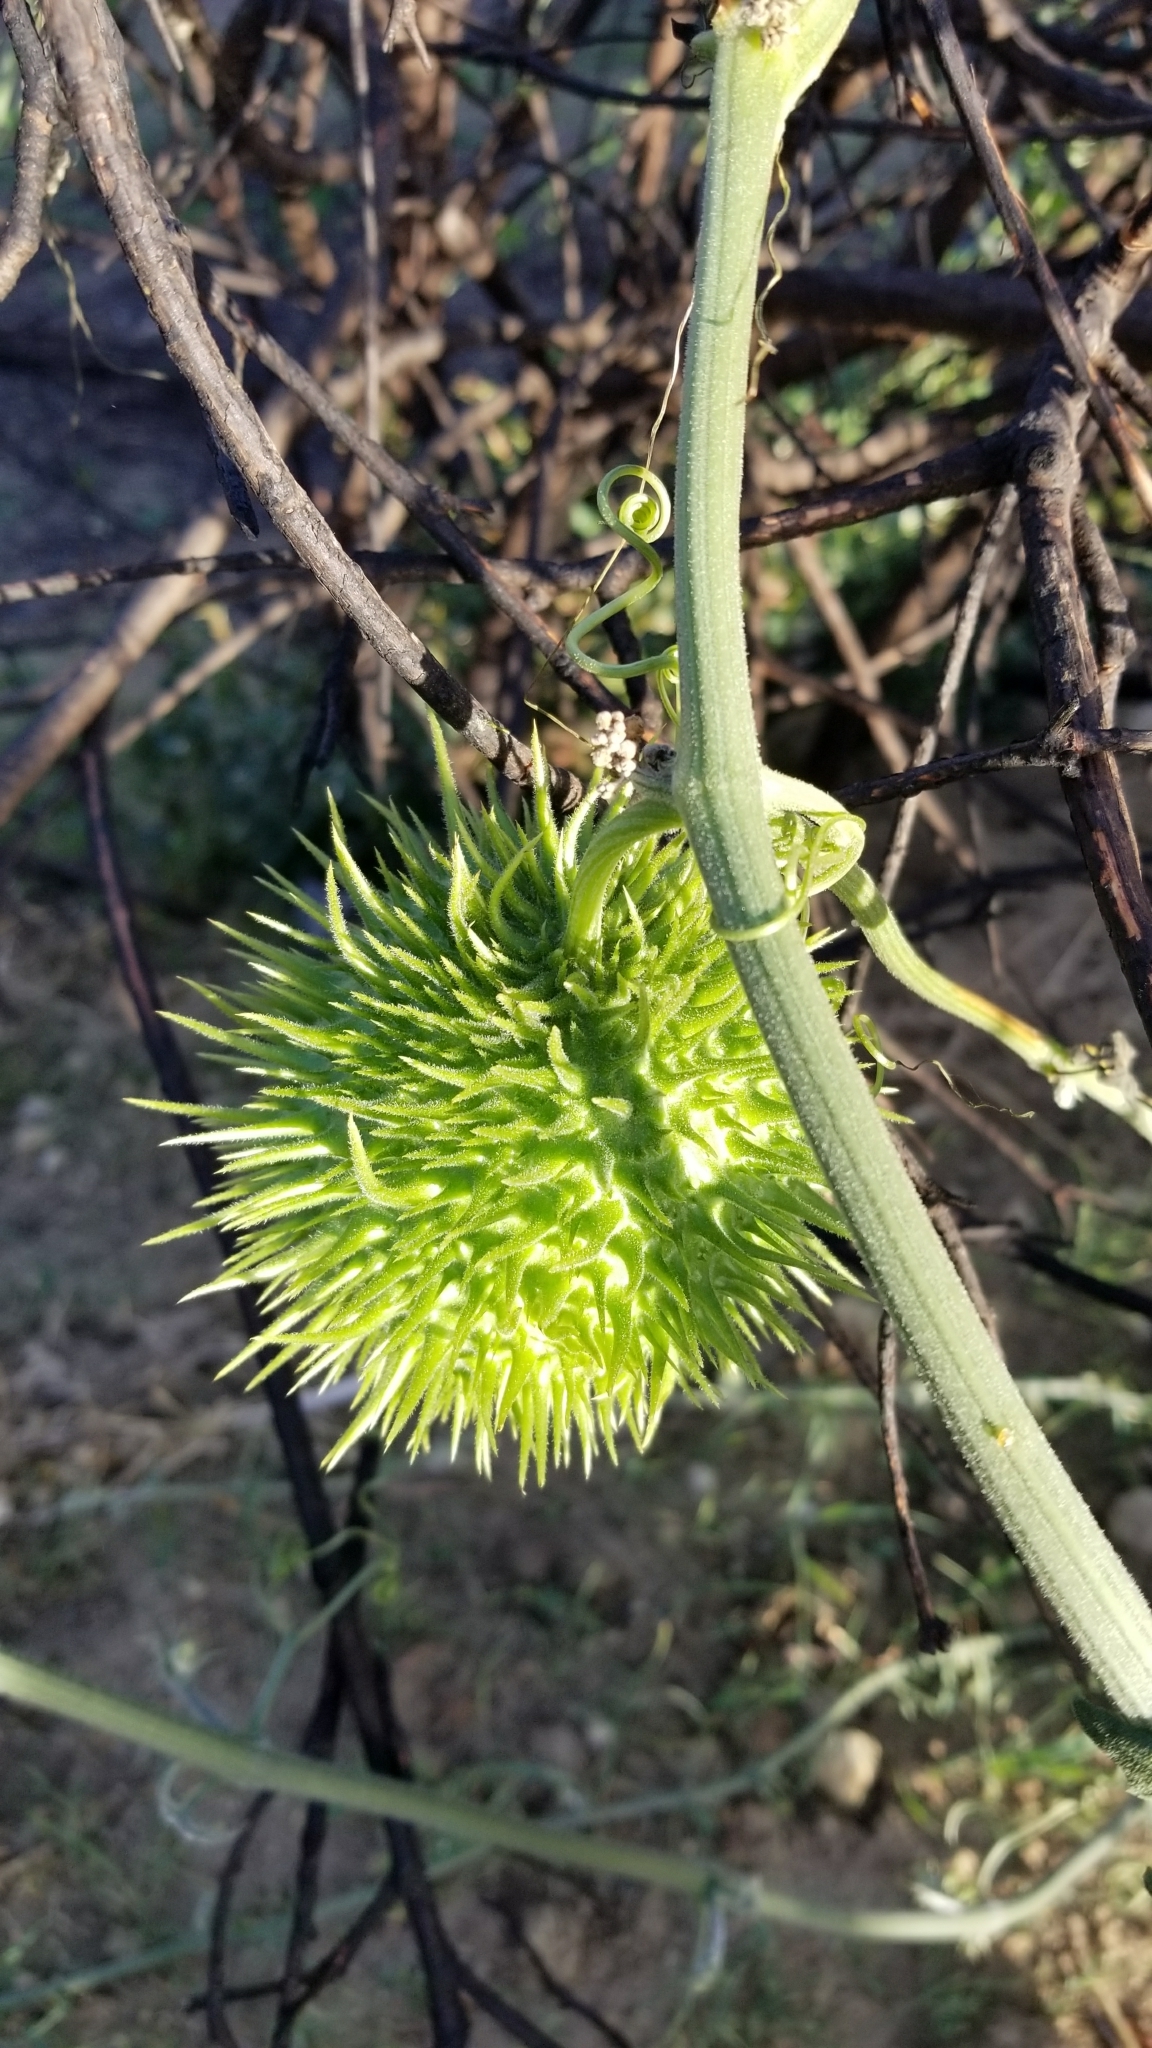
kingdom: Plantae
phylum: Tracheophyta
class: Magnoliopsida
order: Cucurbitales
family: Cucurbitaceae
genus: Marah
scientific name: Marah macrocarpa
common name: Cucamonga manroot
